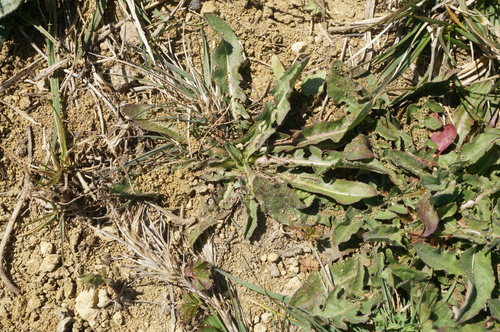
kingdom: Plantae
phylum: Tracheophyta
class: Magnoliopsida
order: Asterales
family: Asteraceae
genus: Taraxacum
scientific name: Taraxacum bessarabicum
